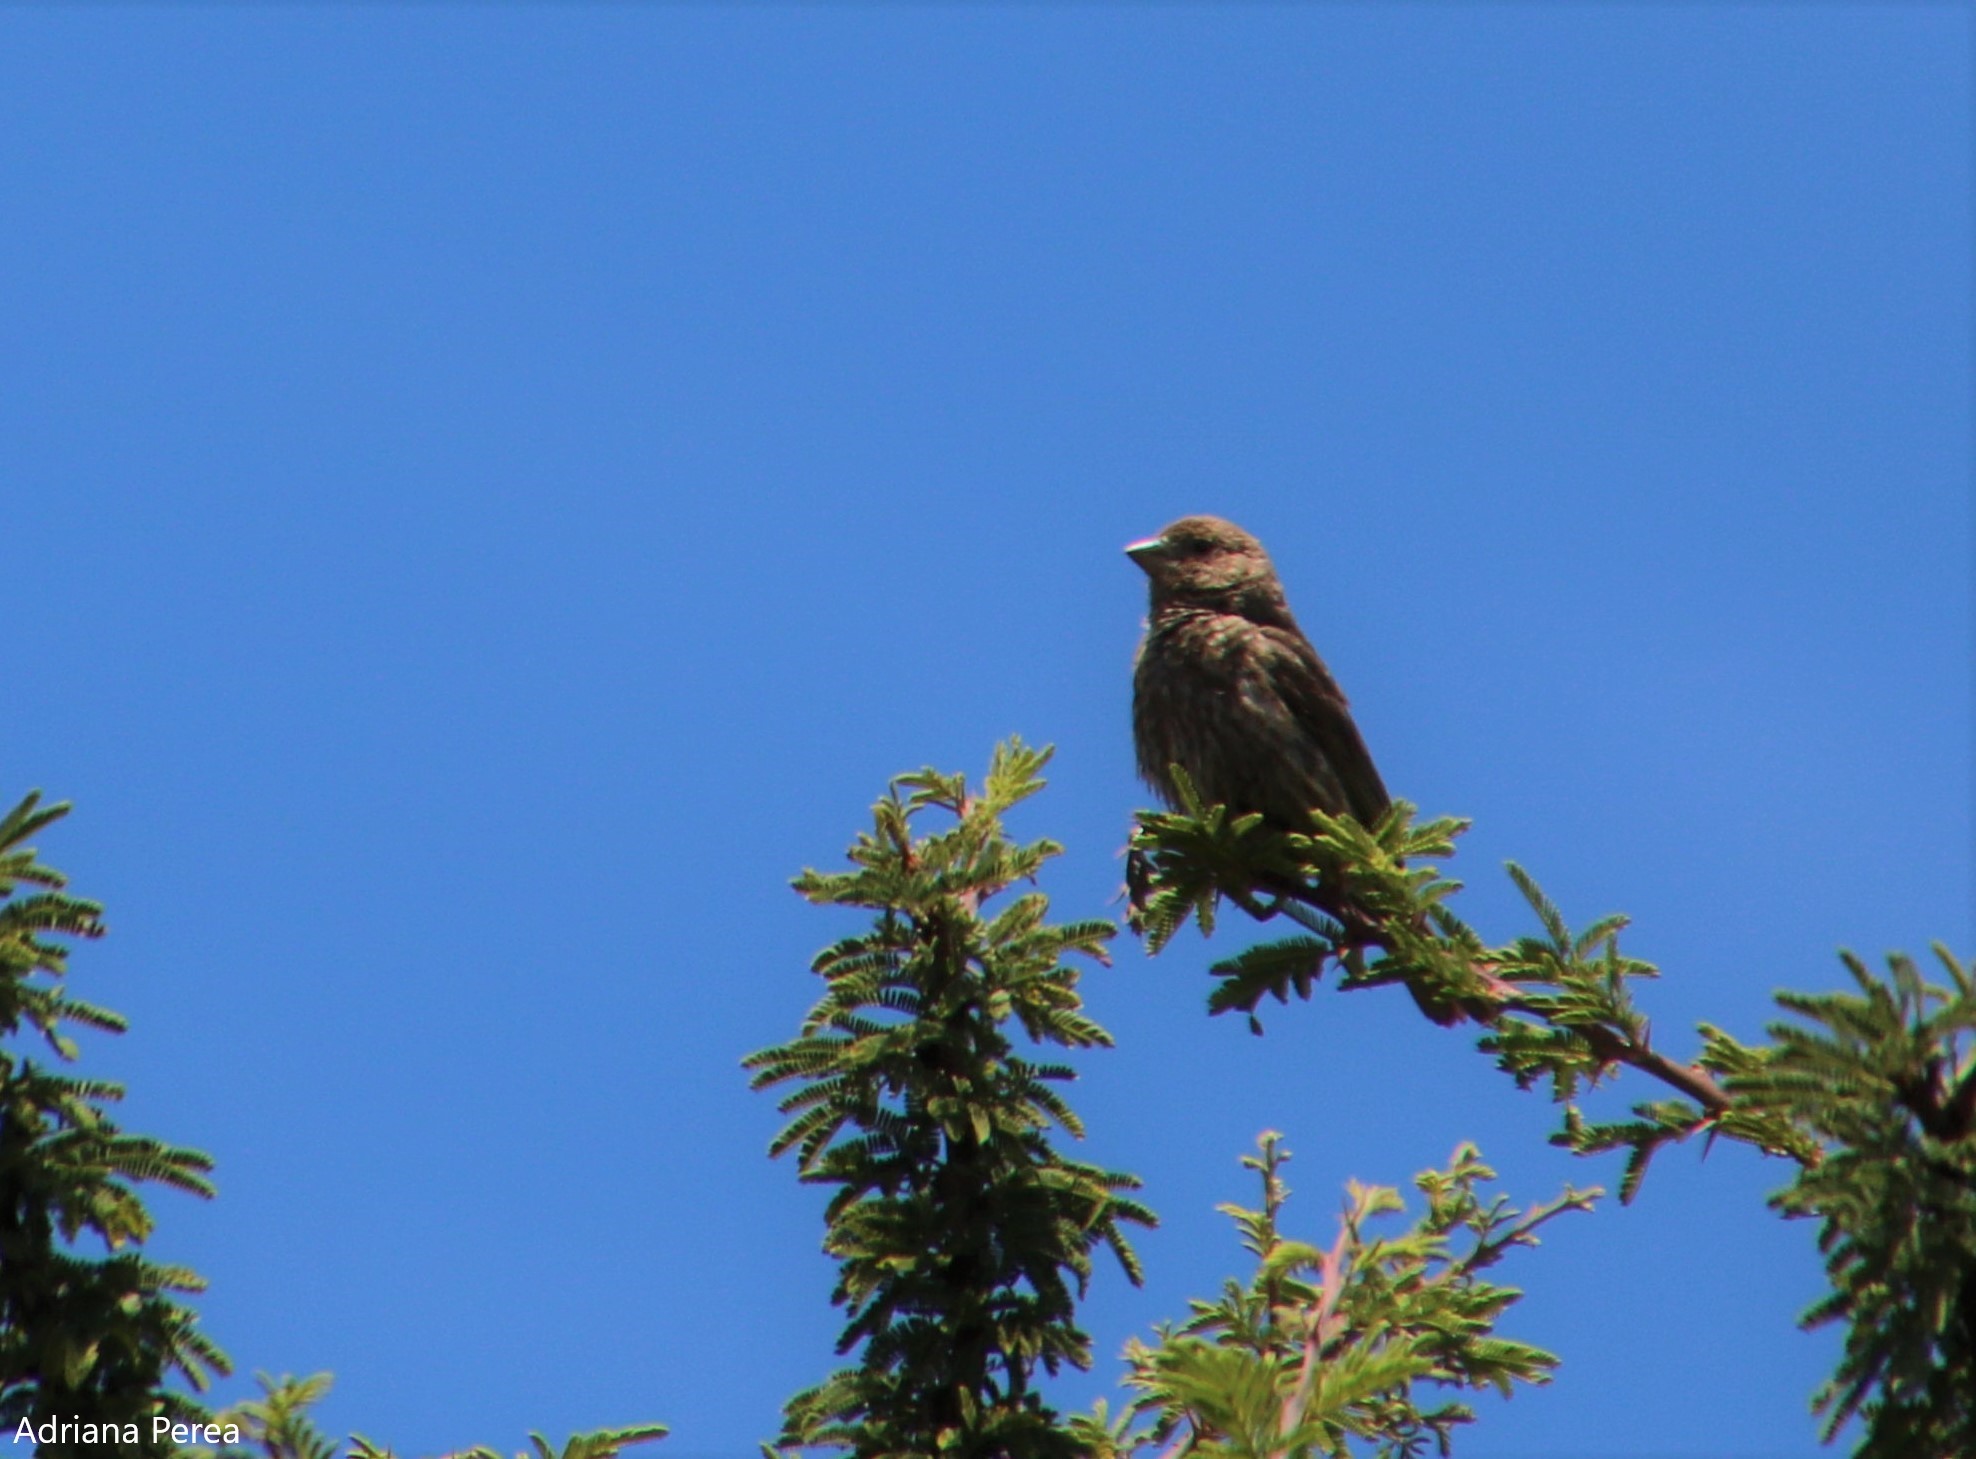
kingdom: Animalia
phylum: Chordata
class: Aves
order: Passeriformes
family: Fringillidae
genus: Haemorhous
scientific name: Haemorhous mexicanus
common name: House finch
